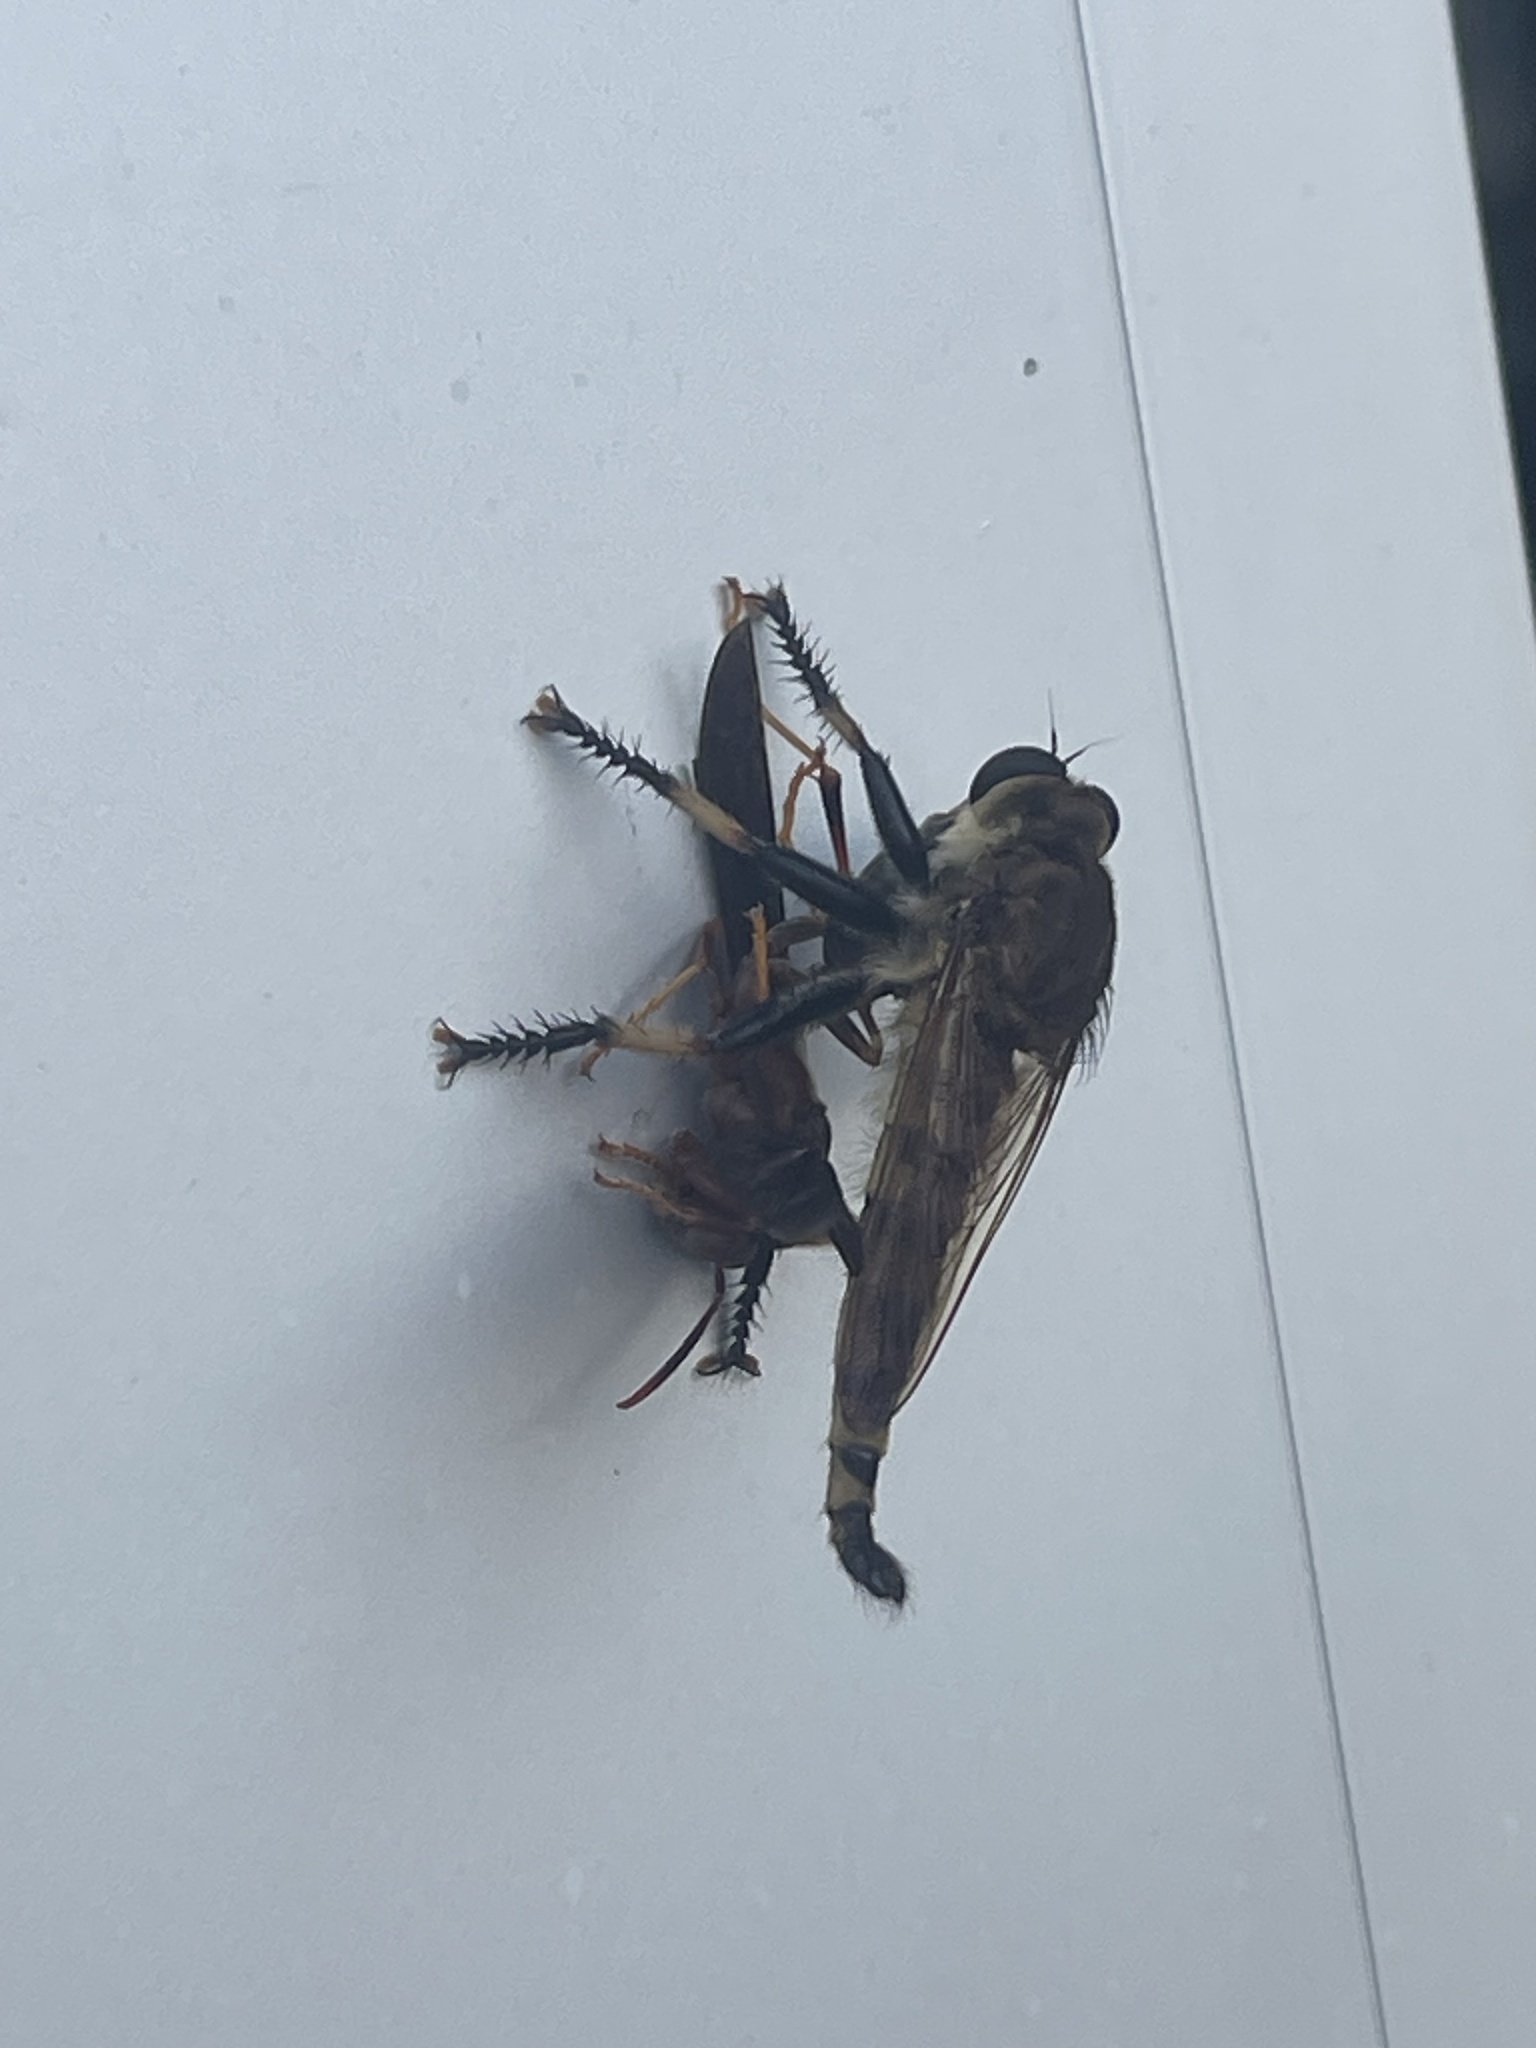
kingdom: Animalia
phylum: Arthropoda
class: Insecta
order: Diptera
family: Asilidae
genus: Promachus
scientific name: Promachus rufipes
